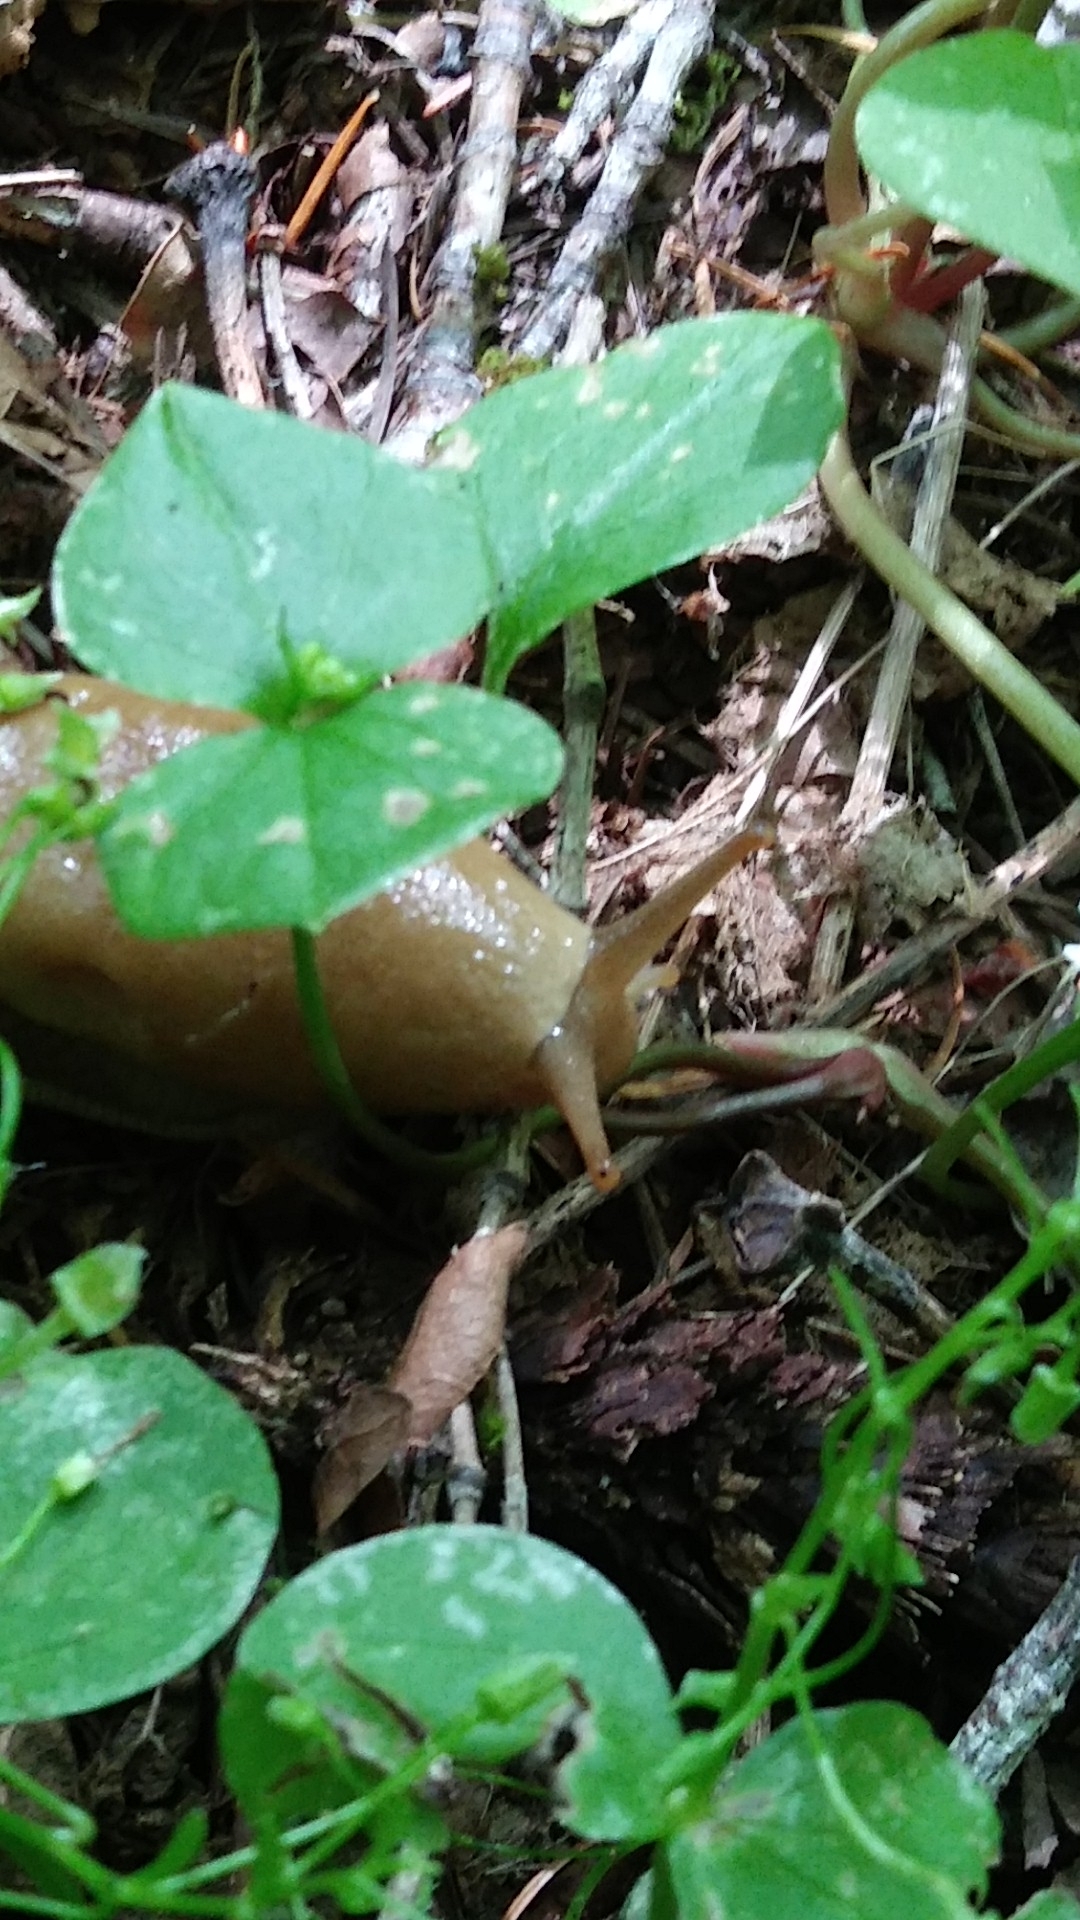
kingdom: Animalia
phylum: Mollusca
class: Gastropoda
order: Stylommatophora
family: Ariolimacidae
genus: Ariolimax
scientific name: Ariolimax columbianus
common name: Pacific banana slug
